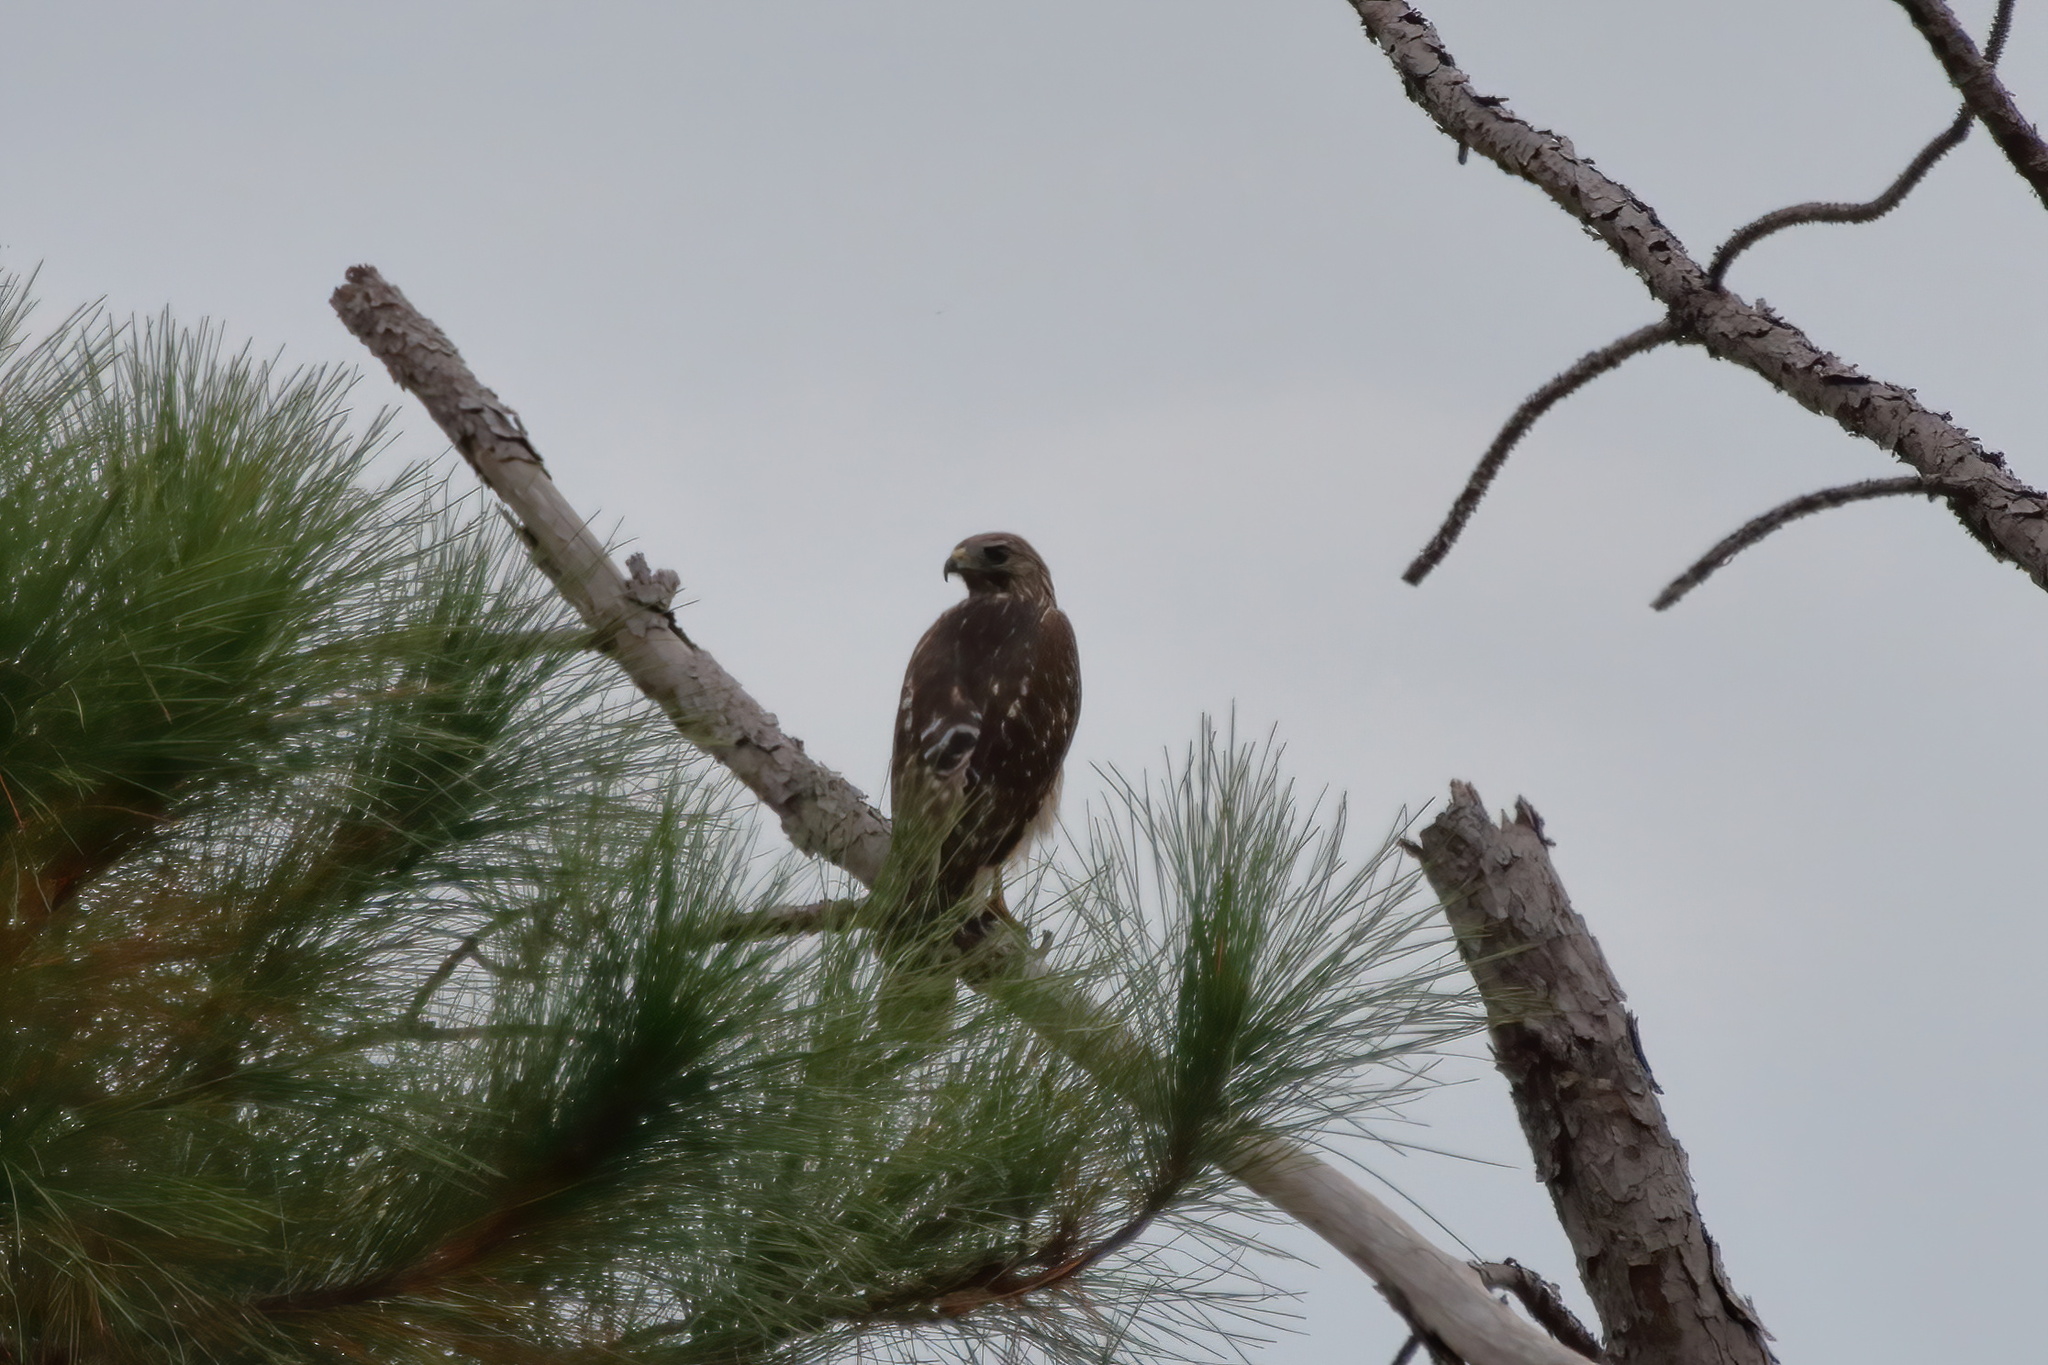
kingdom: Animalia
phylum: Chordata
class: Aves
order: Accipitriformes
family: Accipitridae
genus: Buteo
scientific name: Buteo lineatus
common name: Red-shouldered hawk
